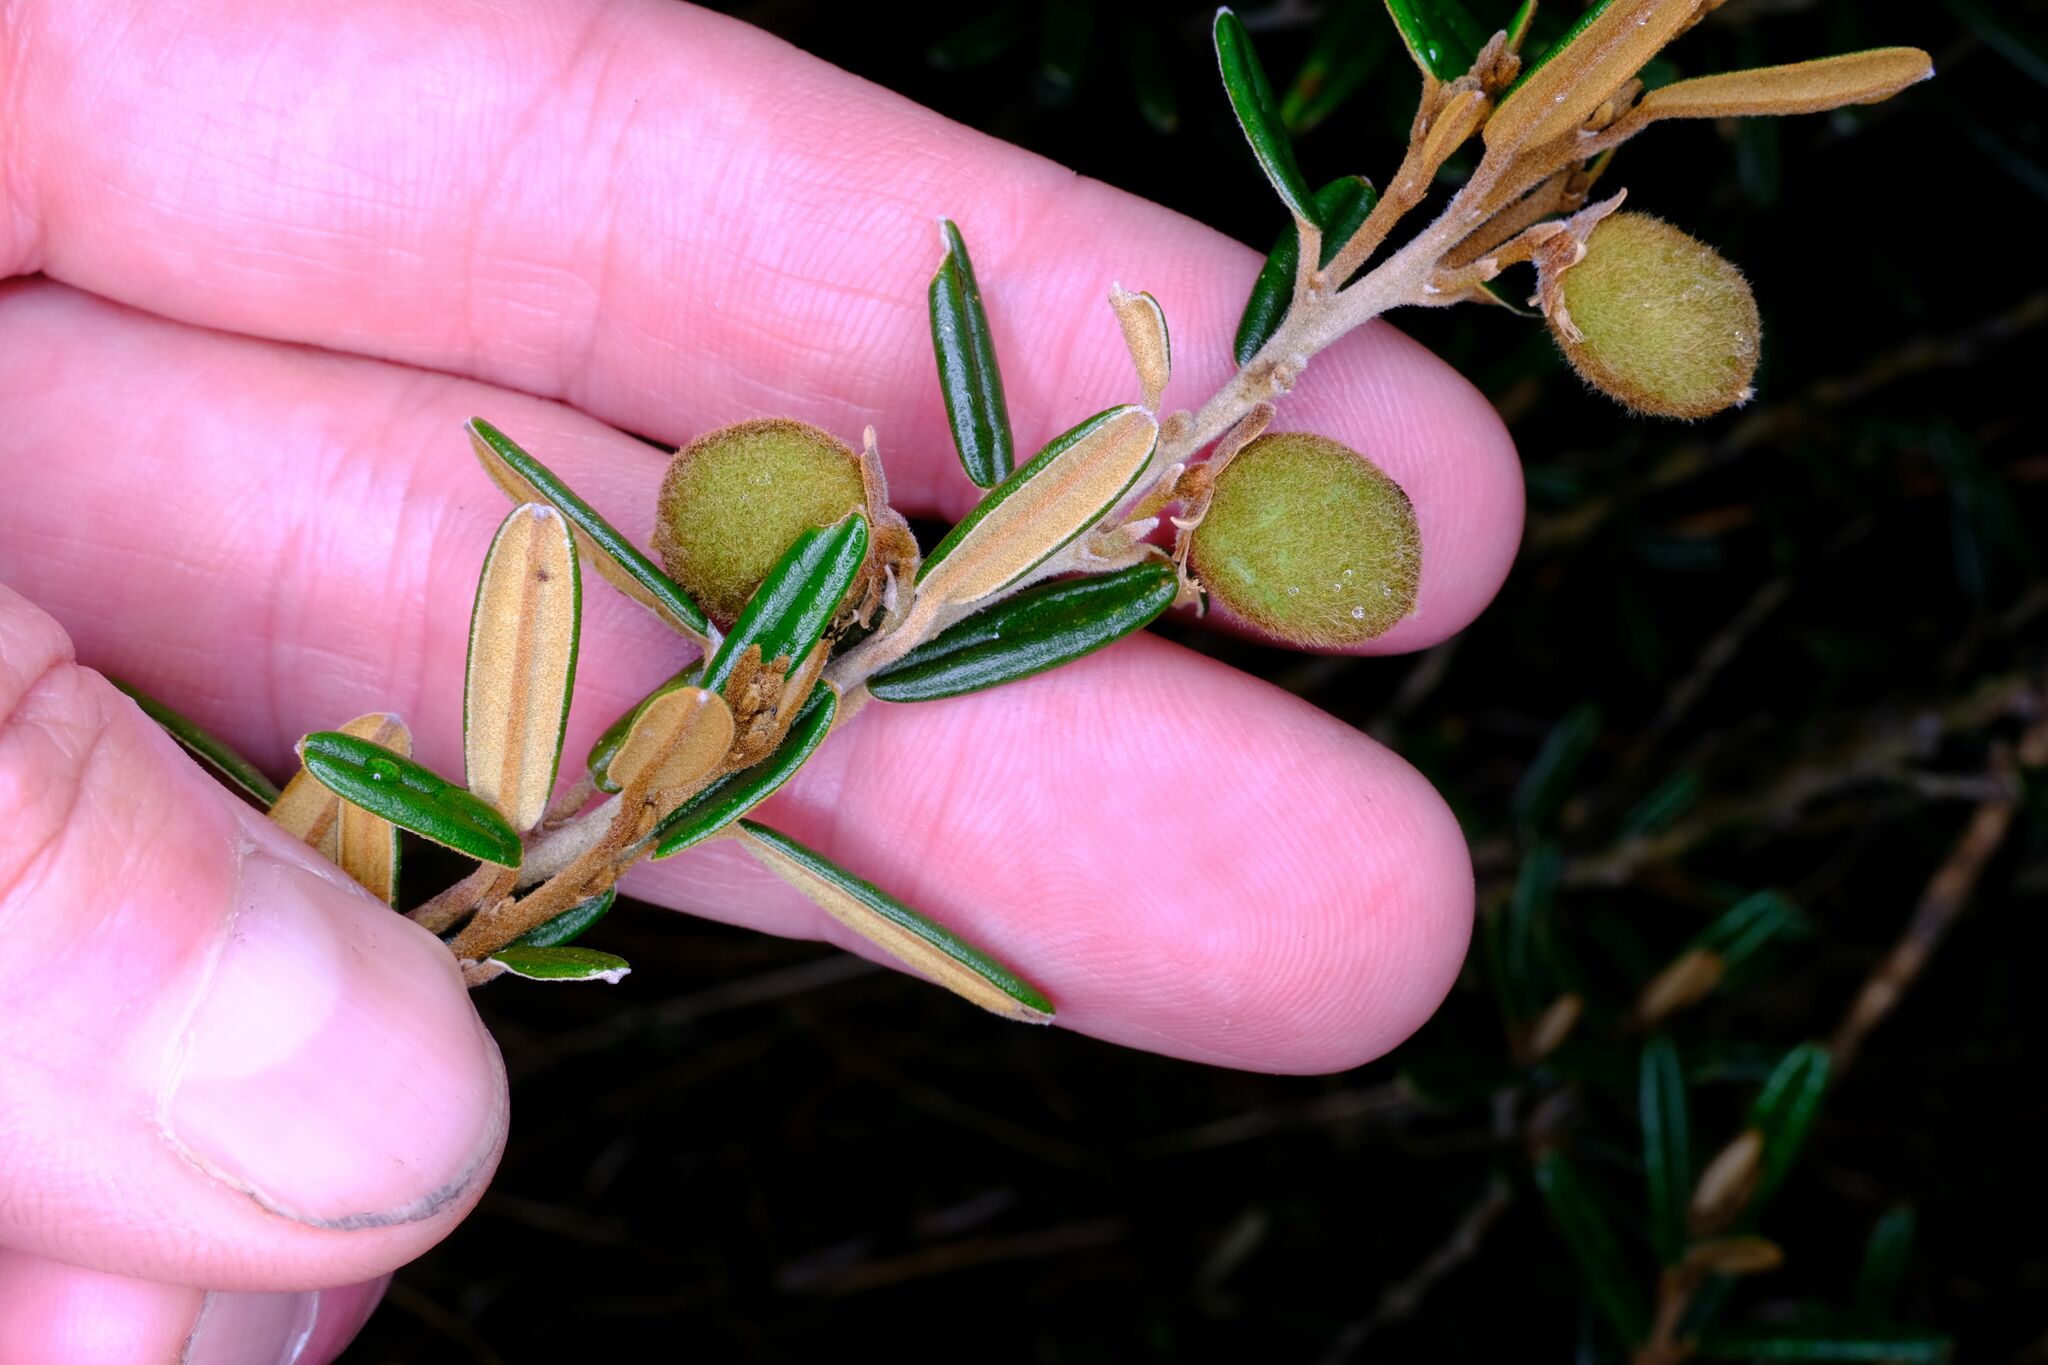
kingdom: Plantae
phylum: Tracheophyta
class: Magnoliopsida
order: Fabales
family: Fabaceae
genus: Hovea
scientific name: Hovea montana
